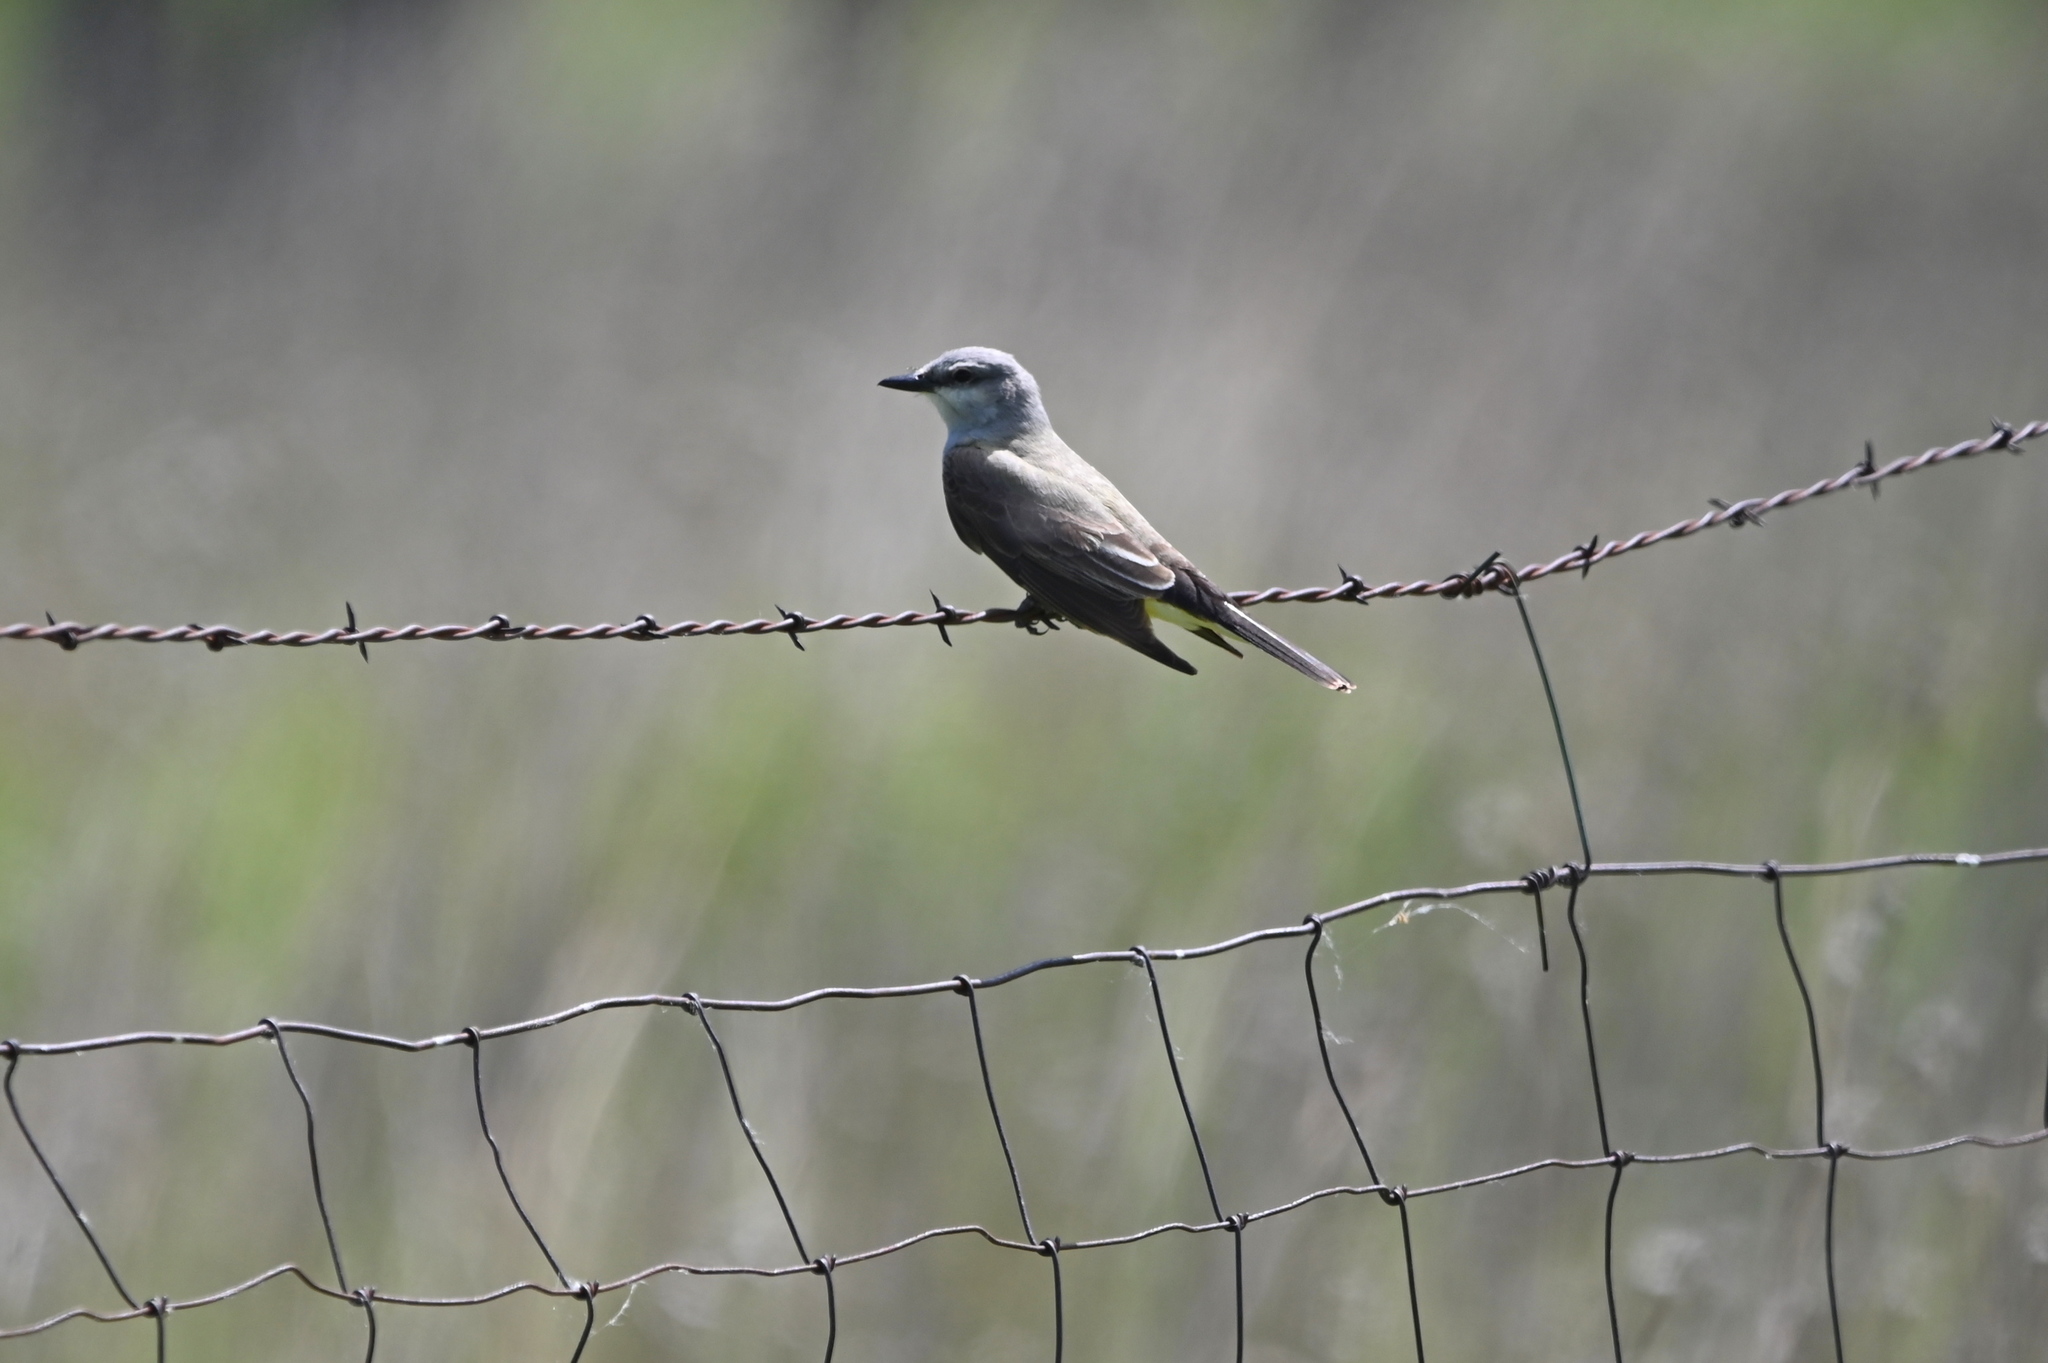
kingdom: Animalia
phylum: Chordata
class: Aves
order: Passeriformes
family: Tyrannidae
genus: Tyrannus
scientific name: Tyrannus verticalis
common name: Western kingbird
